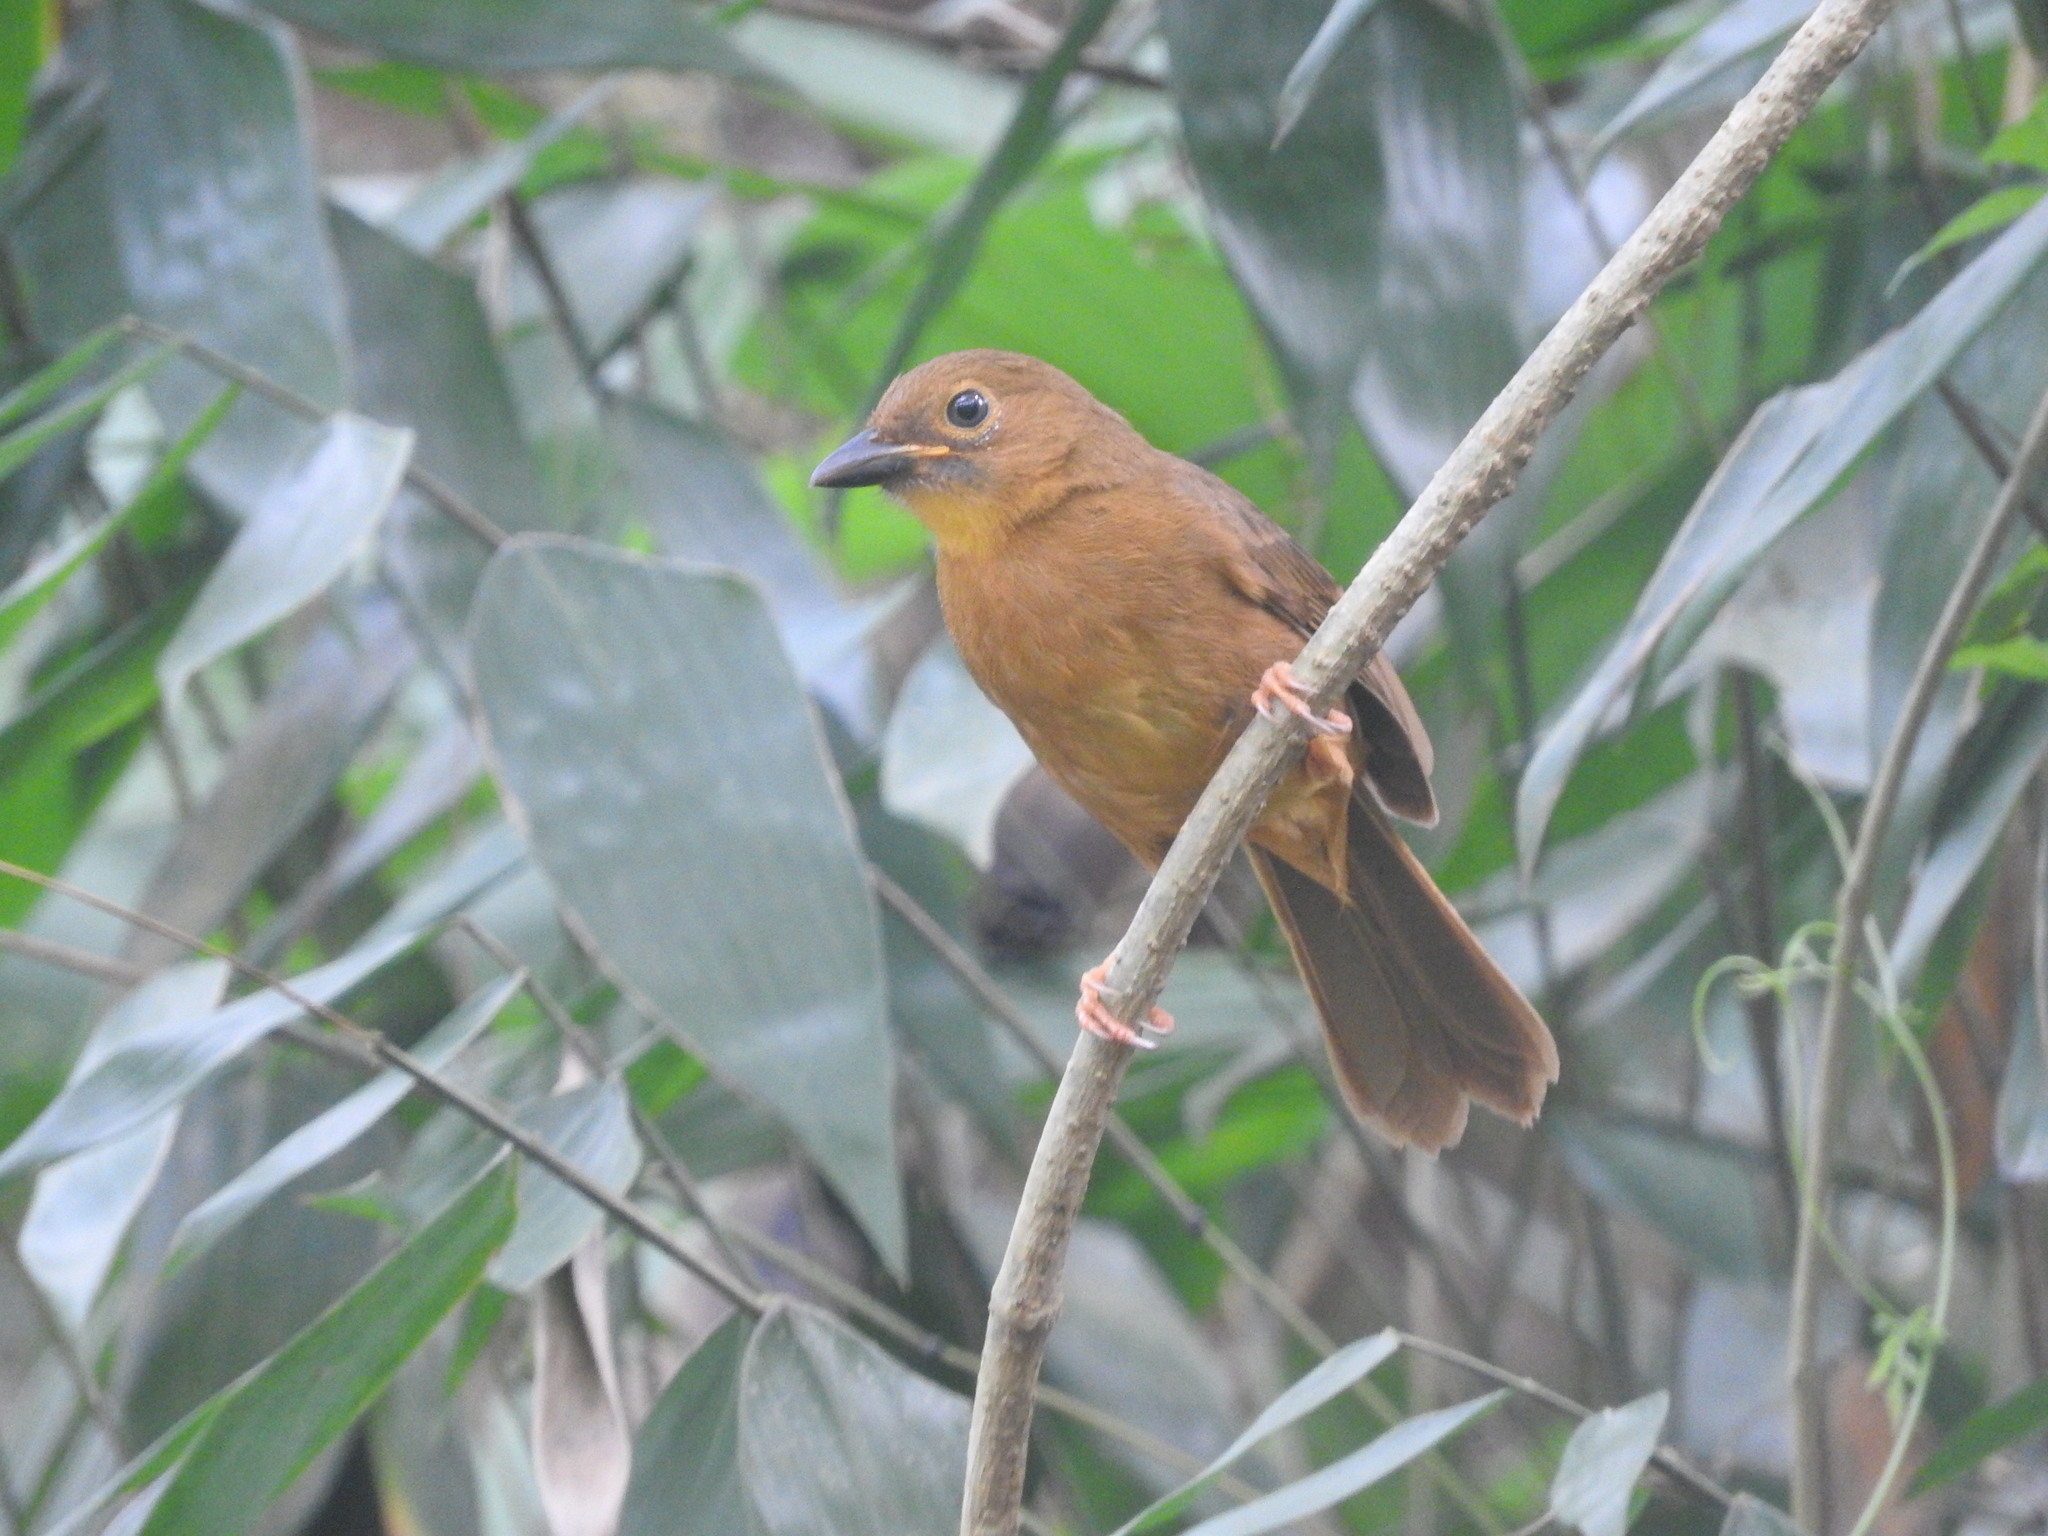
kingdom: Animalia
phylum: Chordata
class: Aves
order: Passeriformes
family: Cardinalidae
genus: Habia
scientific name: Habia fuscicauda
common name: Red-throated ant-tanager
